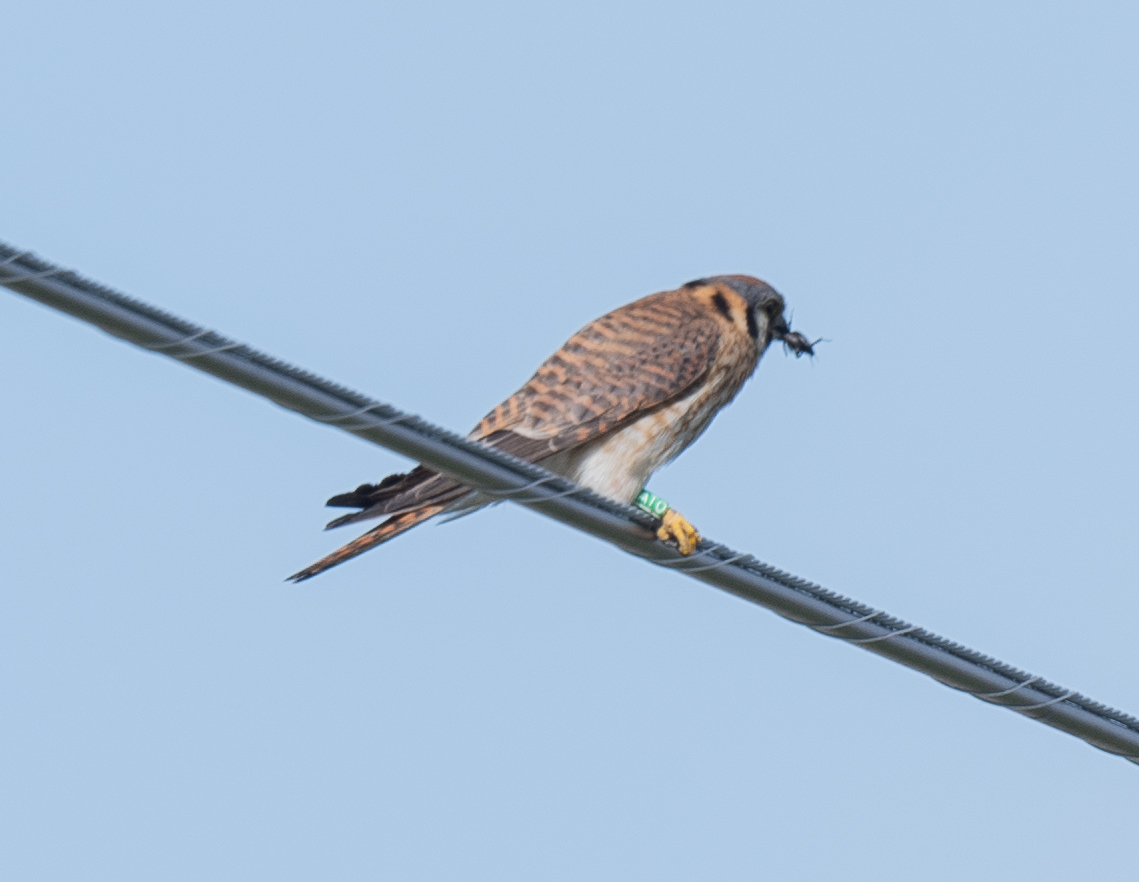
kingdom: Animalia
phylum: Chordata
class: Aves
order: Falconiformes
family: Falconidae
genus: Falco
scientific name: Falco sparverius
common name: American kestrel
